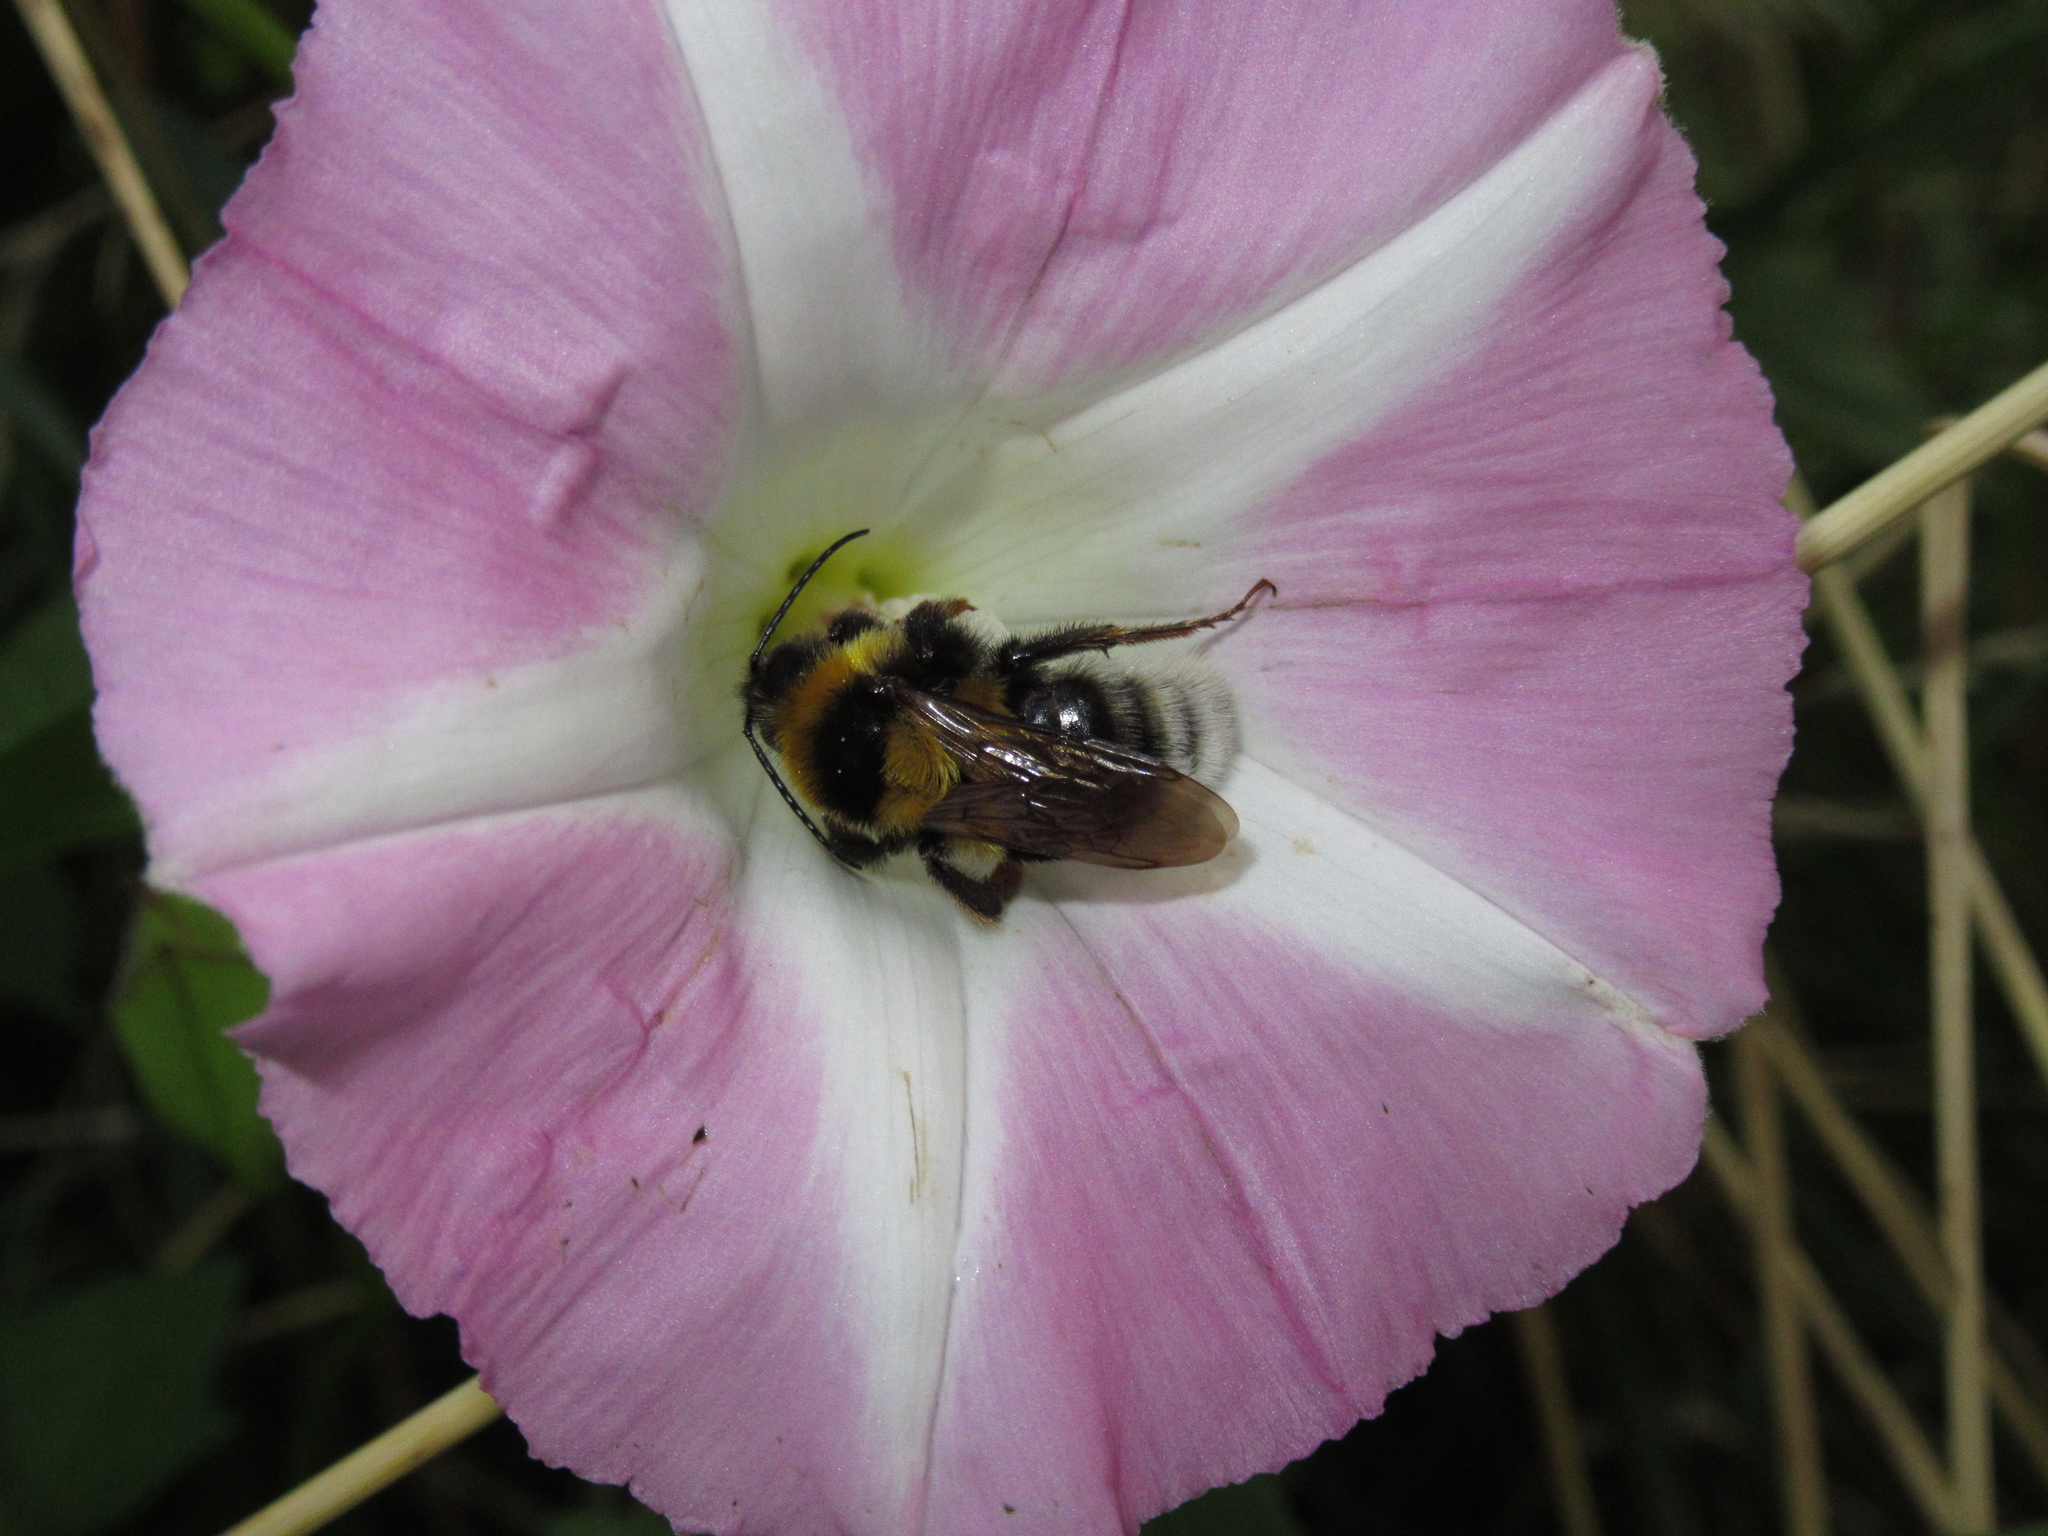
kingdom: Animalia
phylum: Arthropoda
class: Insecta
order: Hymenoptera
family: Apidae
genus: Bombus
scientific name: Bombus ruderatus
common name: Large garden bumblebee
